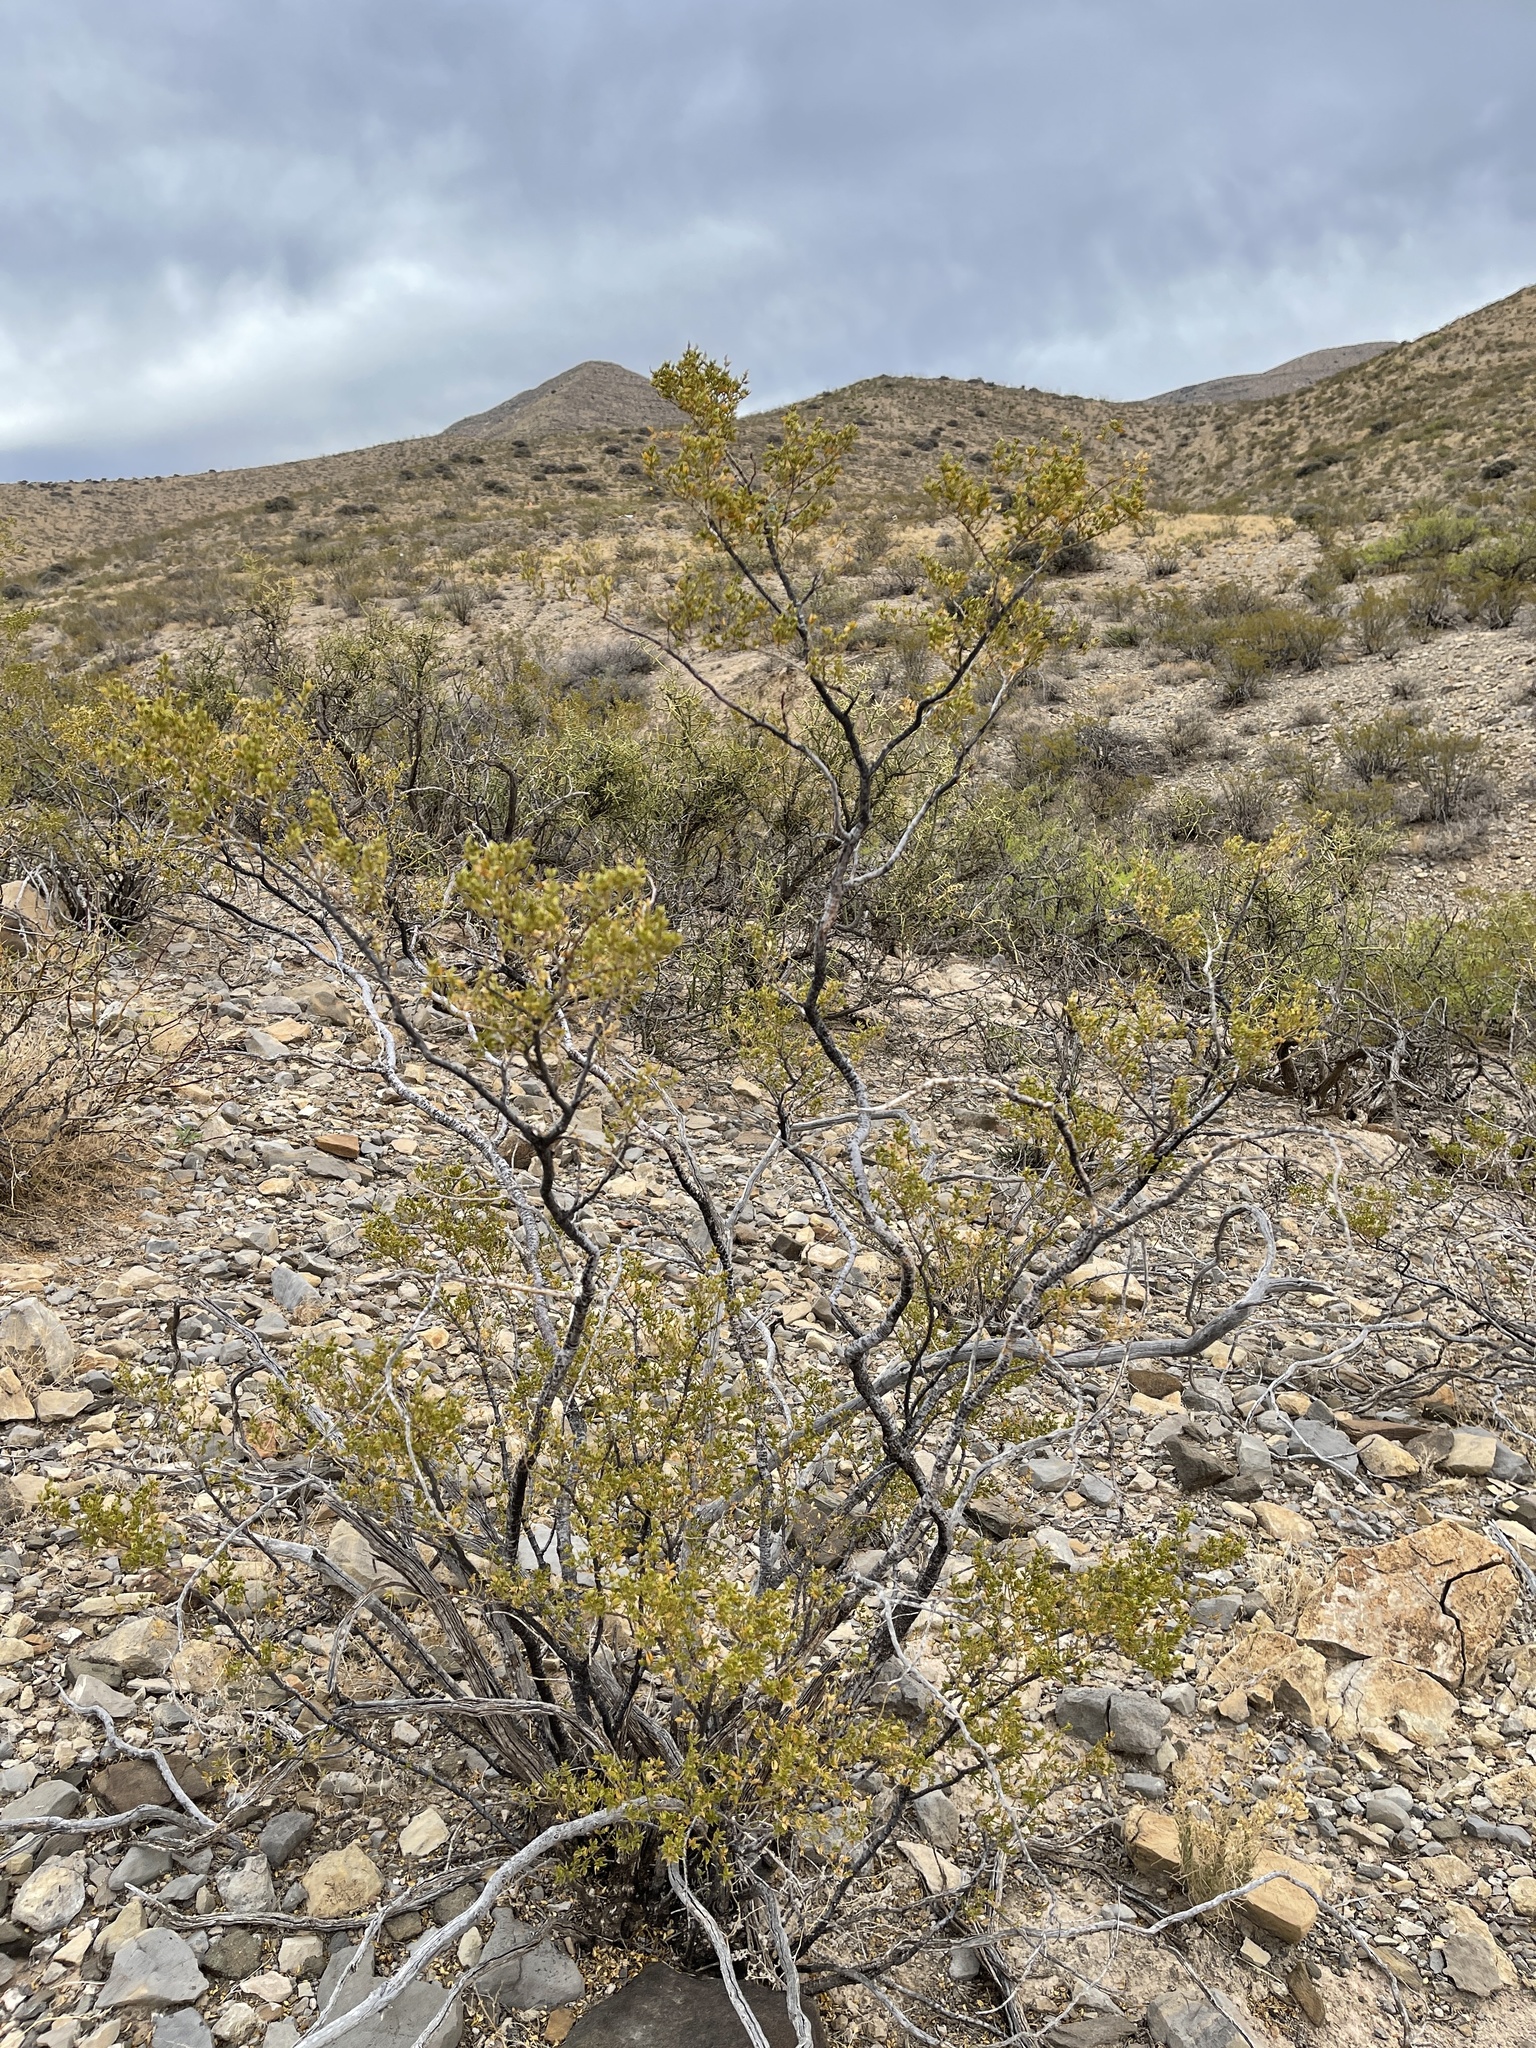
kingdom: Plantae
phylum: Tracheophyta
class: Magnoliopsida
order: Zygophyllales
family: Zygophyllaceae
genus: Larrea
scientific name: Larrea tridentata
